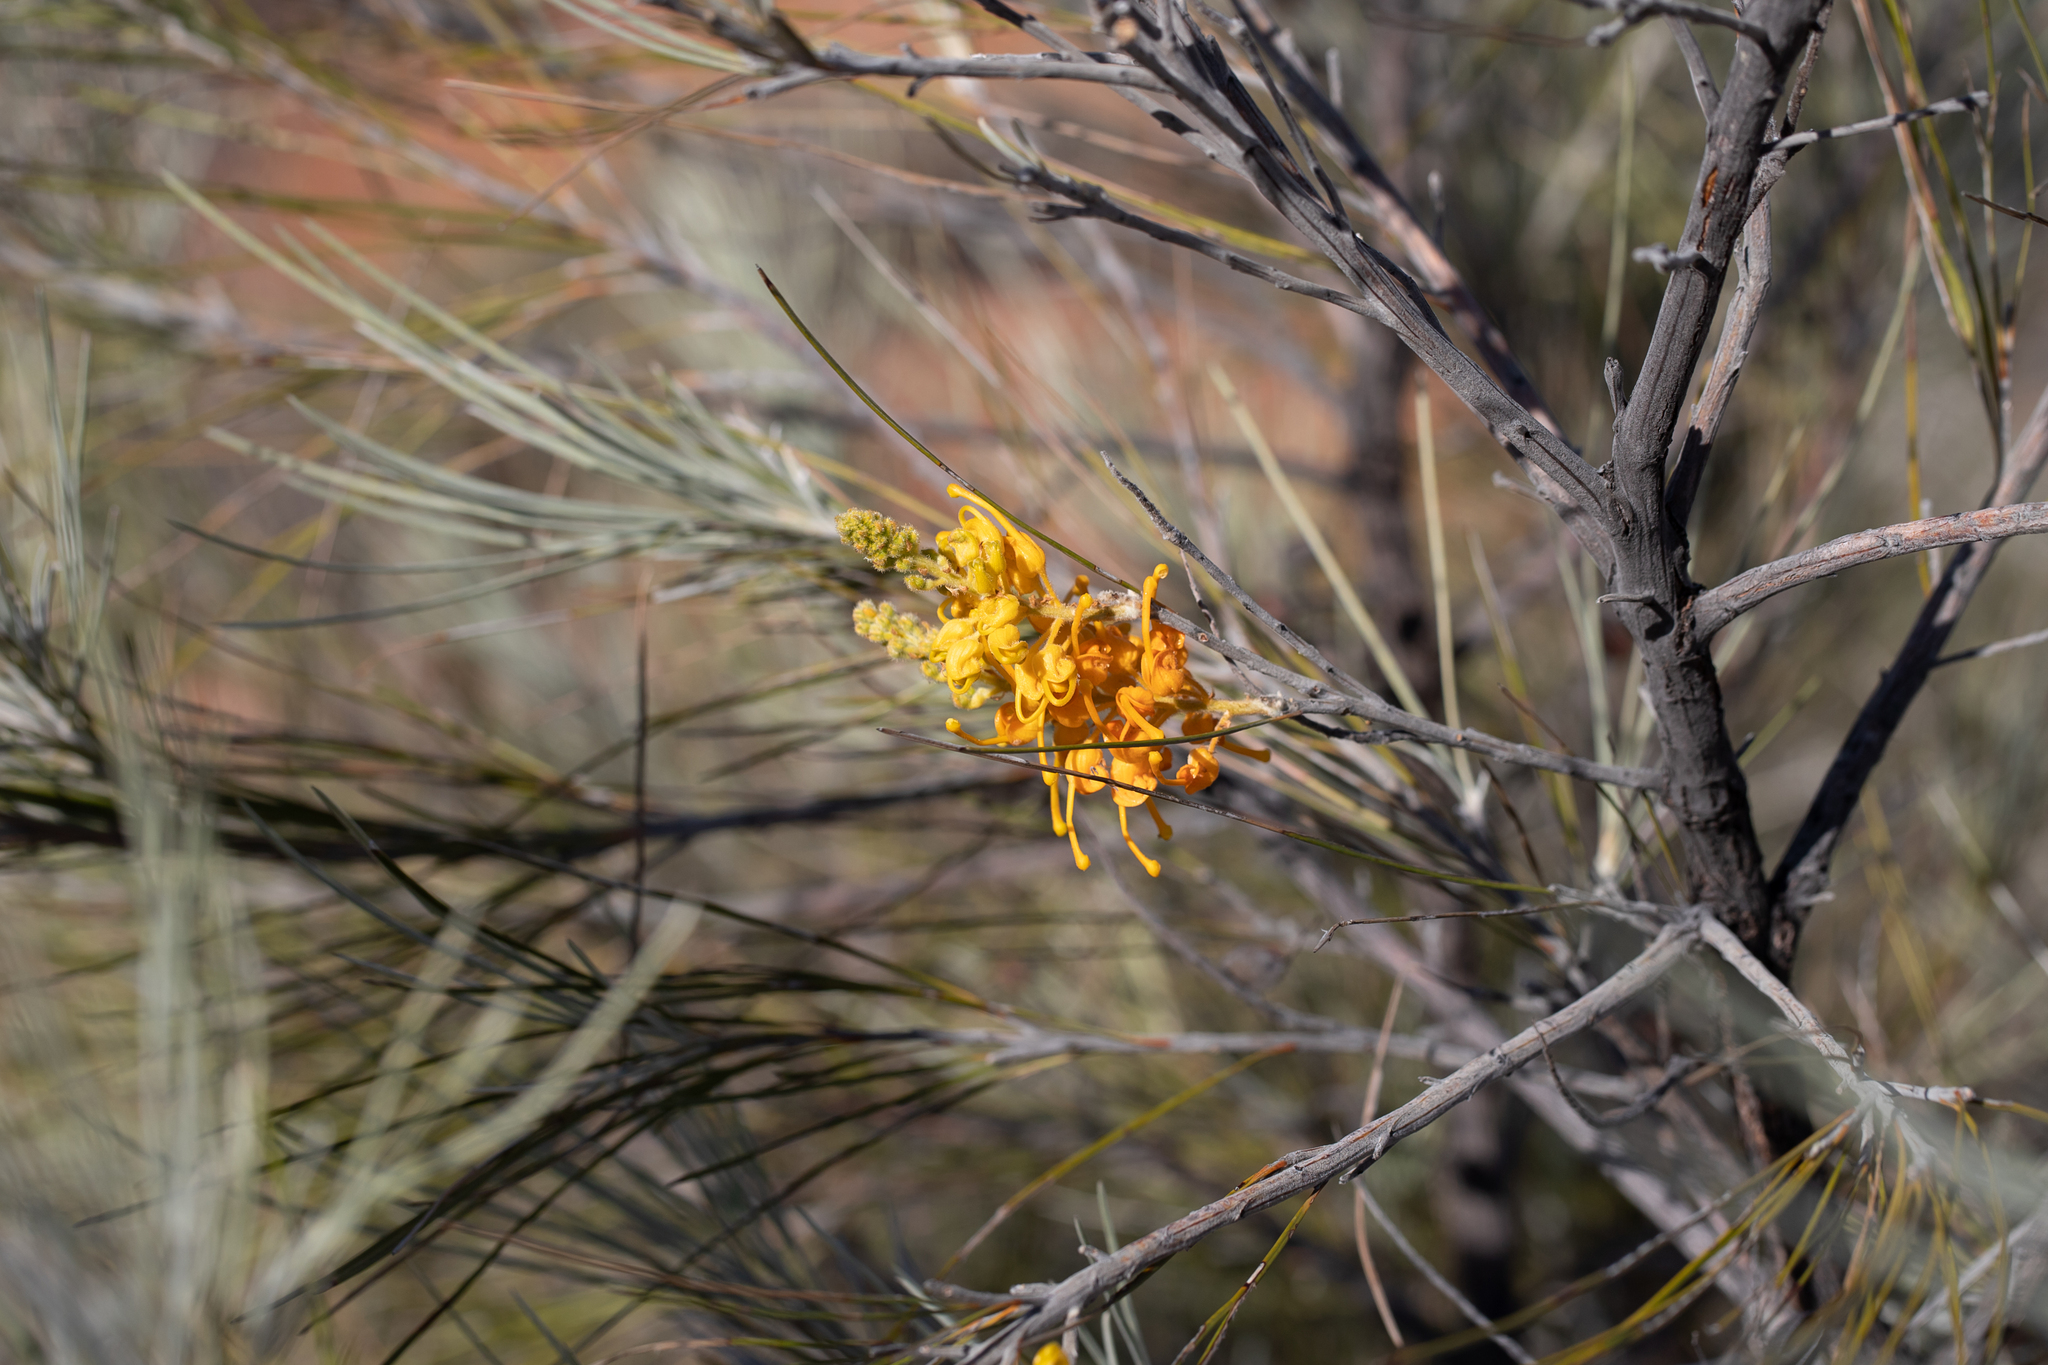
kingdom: Plantae
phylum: Tracheophyta
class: Magnoliopsida
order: Proteales
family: Proteaceae
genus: Grevillea
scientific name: Grevillea juncifolia
